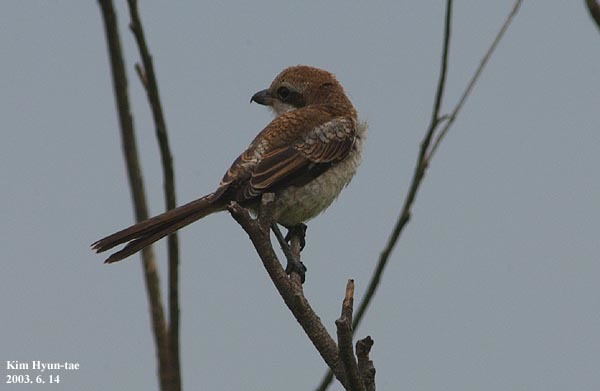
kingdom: Animalia
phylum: Chordata
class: Aves
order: Passeriformes
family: Laniidae
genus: Lanius
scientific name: Lanius tigrinus
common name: Tiger shrike
